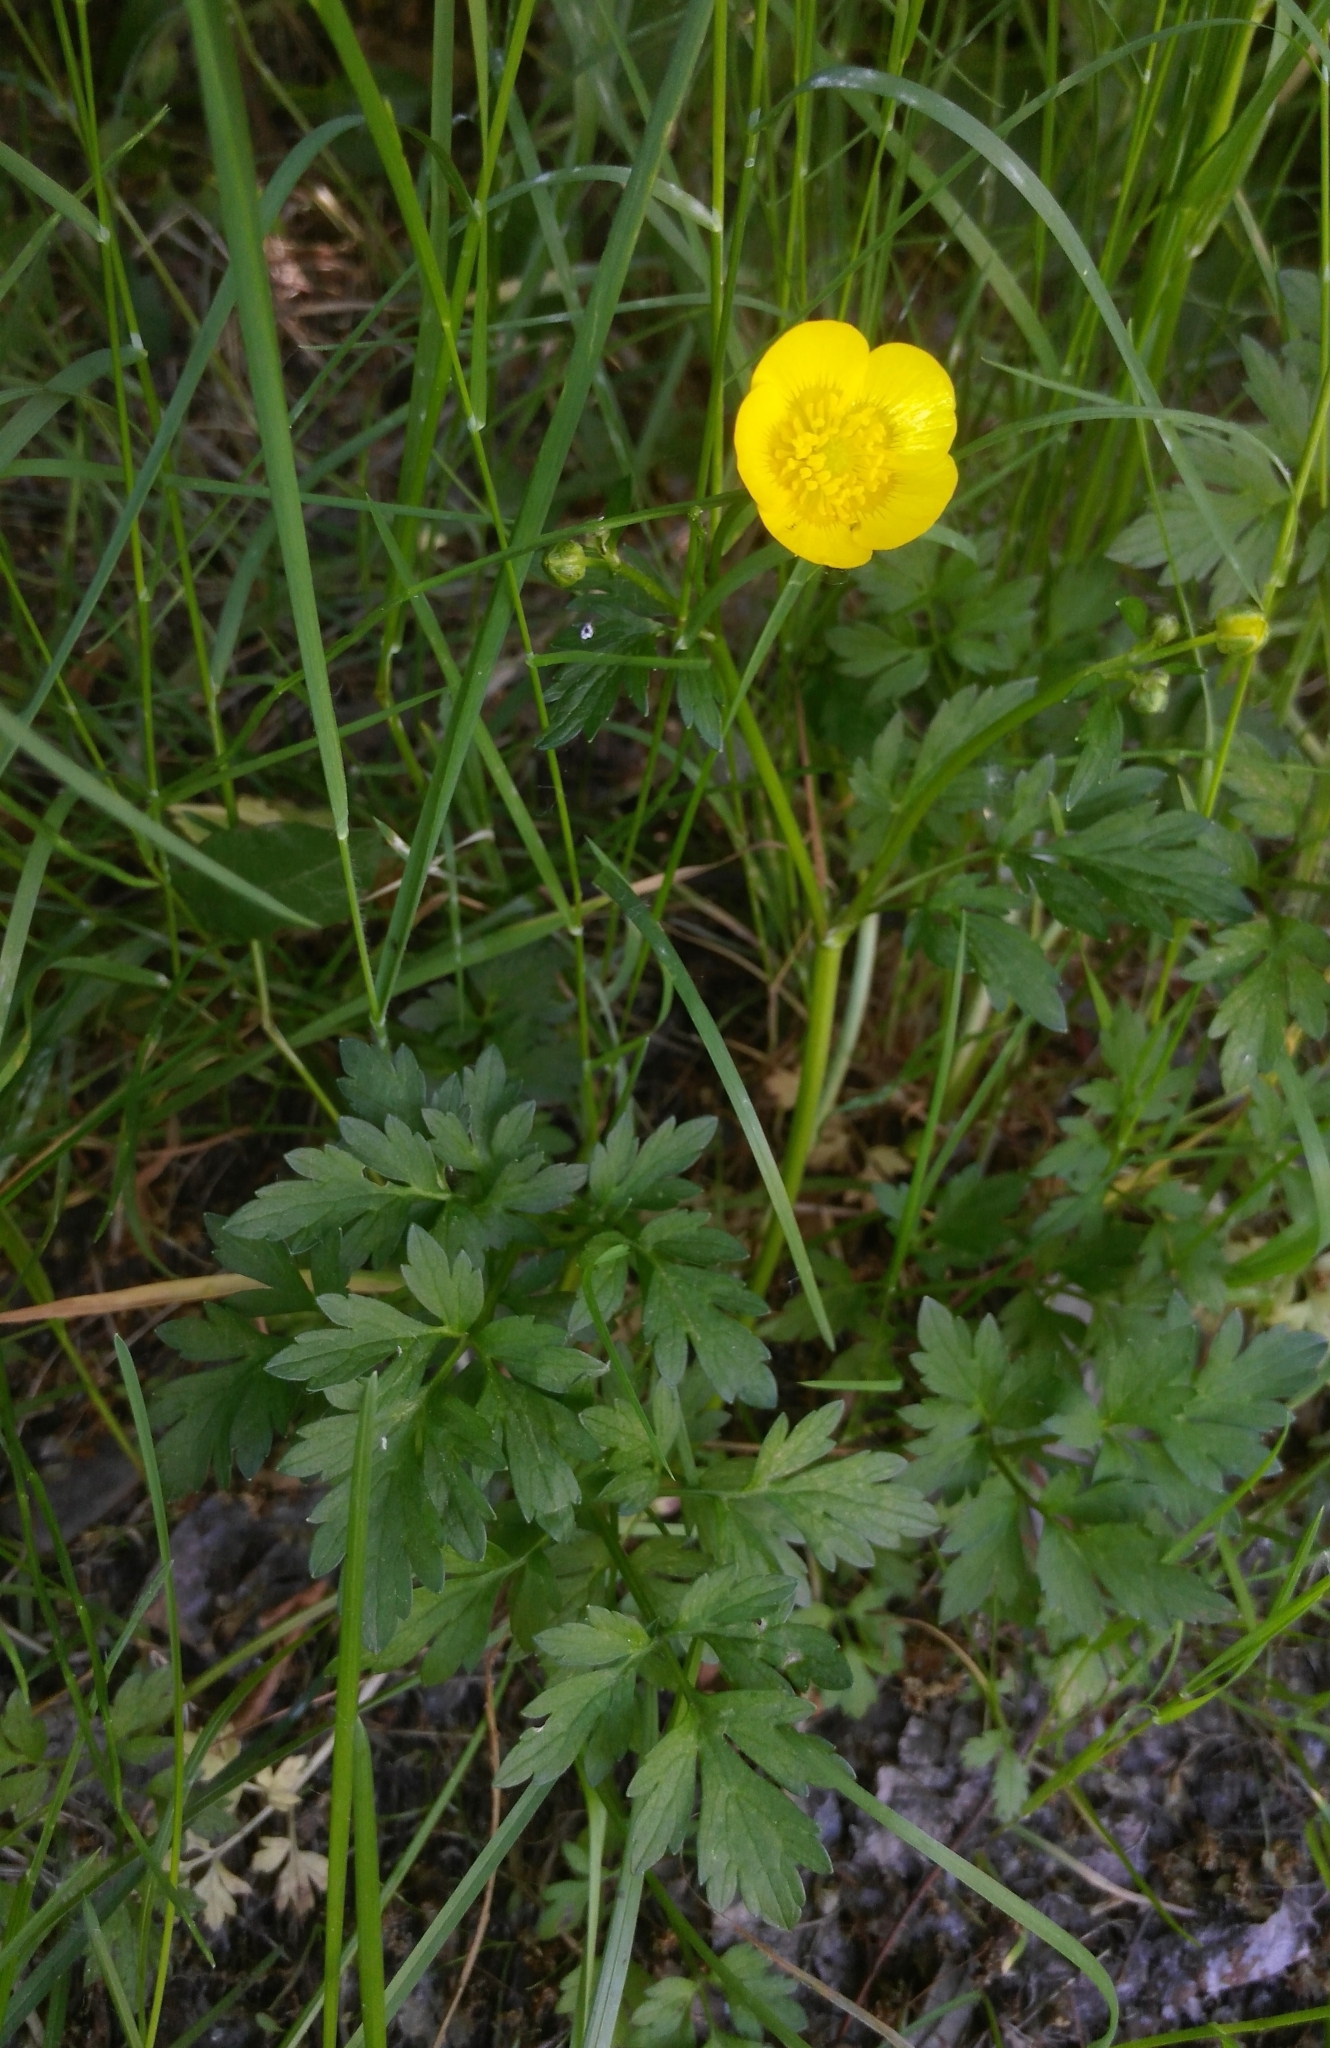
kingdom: Plantae
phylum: Tracheophyta
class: Magnoliopsida
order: Ranunculales
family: Ranunculaceae
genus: Ranunculus
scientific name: Ranunculus repens
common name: Creeping buttercup
